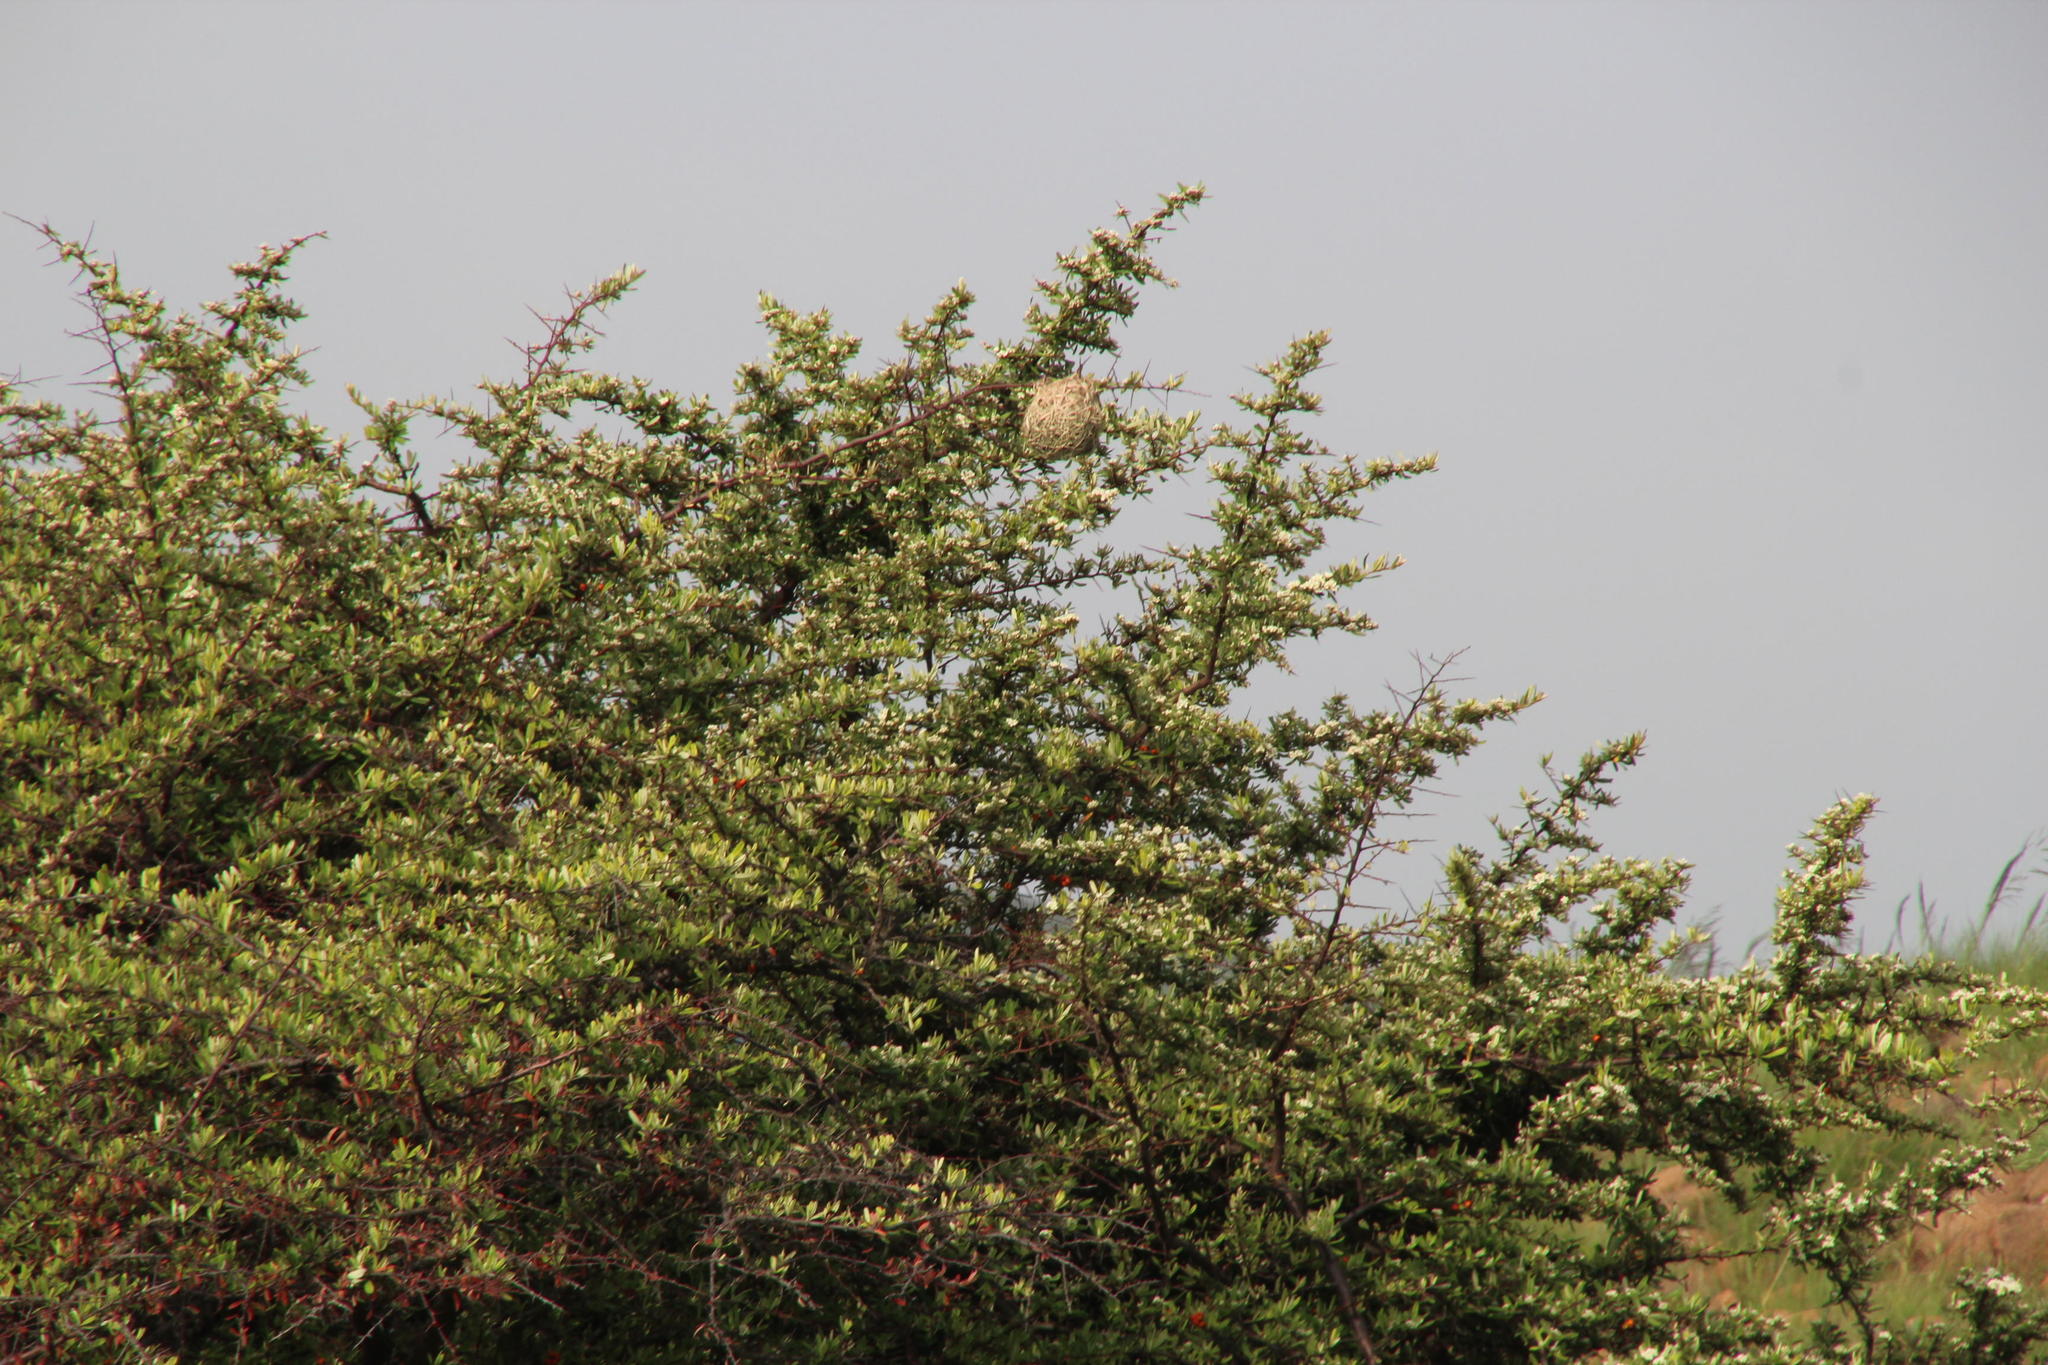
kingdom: Plantae
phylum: Tracheophyta
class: Magnoliopsida
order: Rosales
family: Rosaceae
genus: Pyracantha
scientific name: Pyracantha angustifolia
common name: Narrowleaf firethorn
